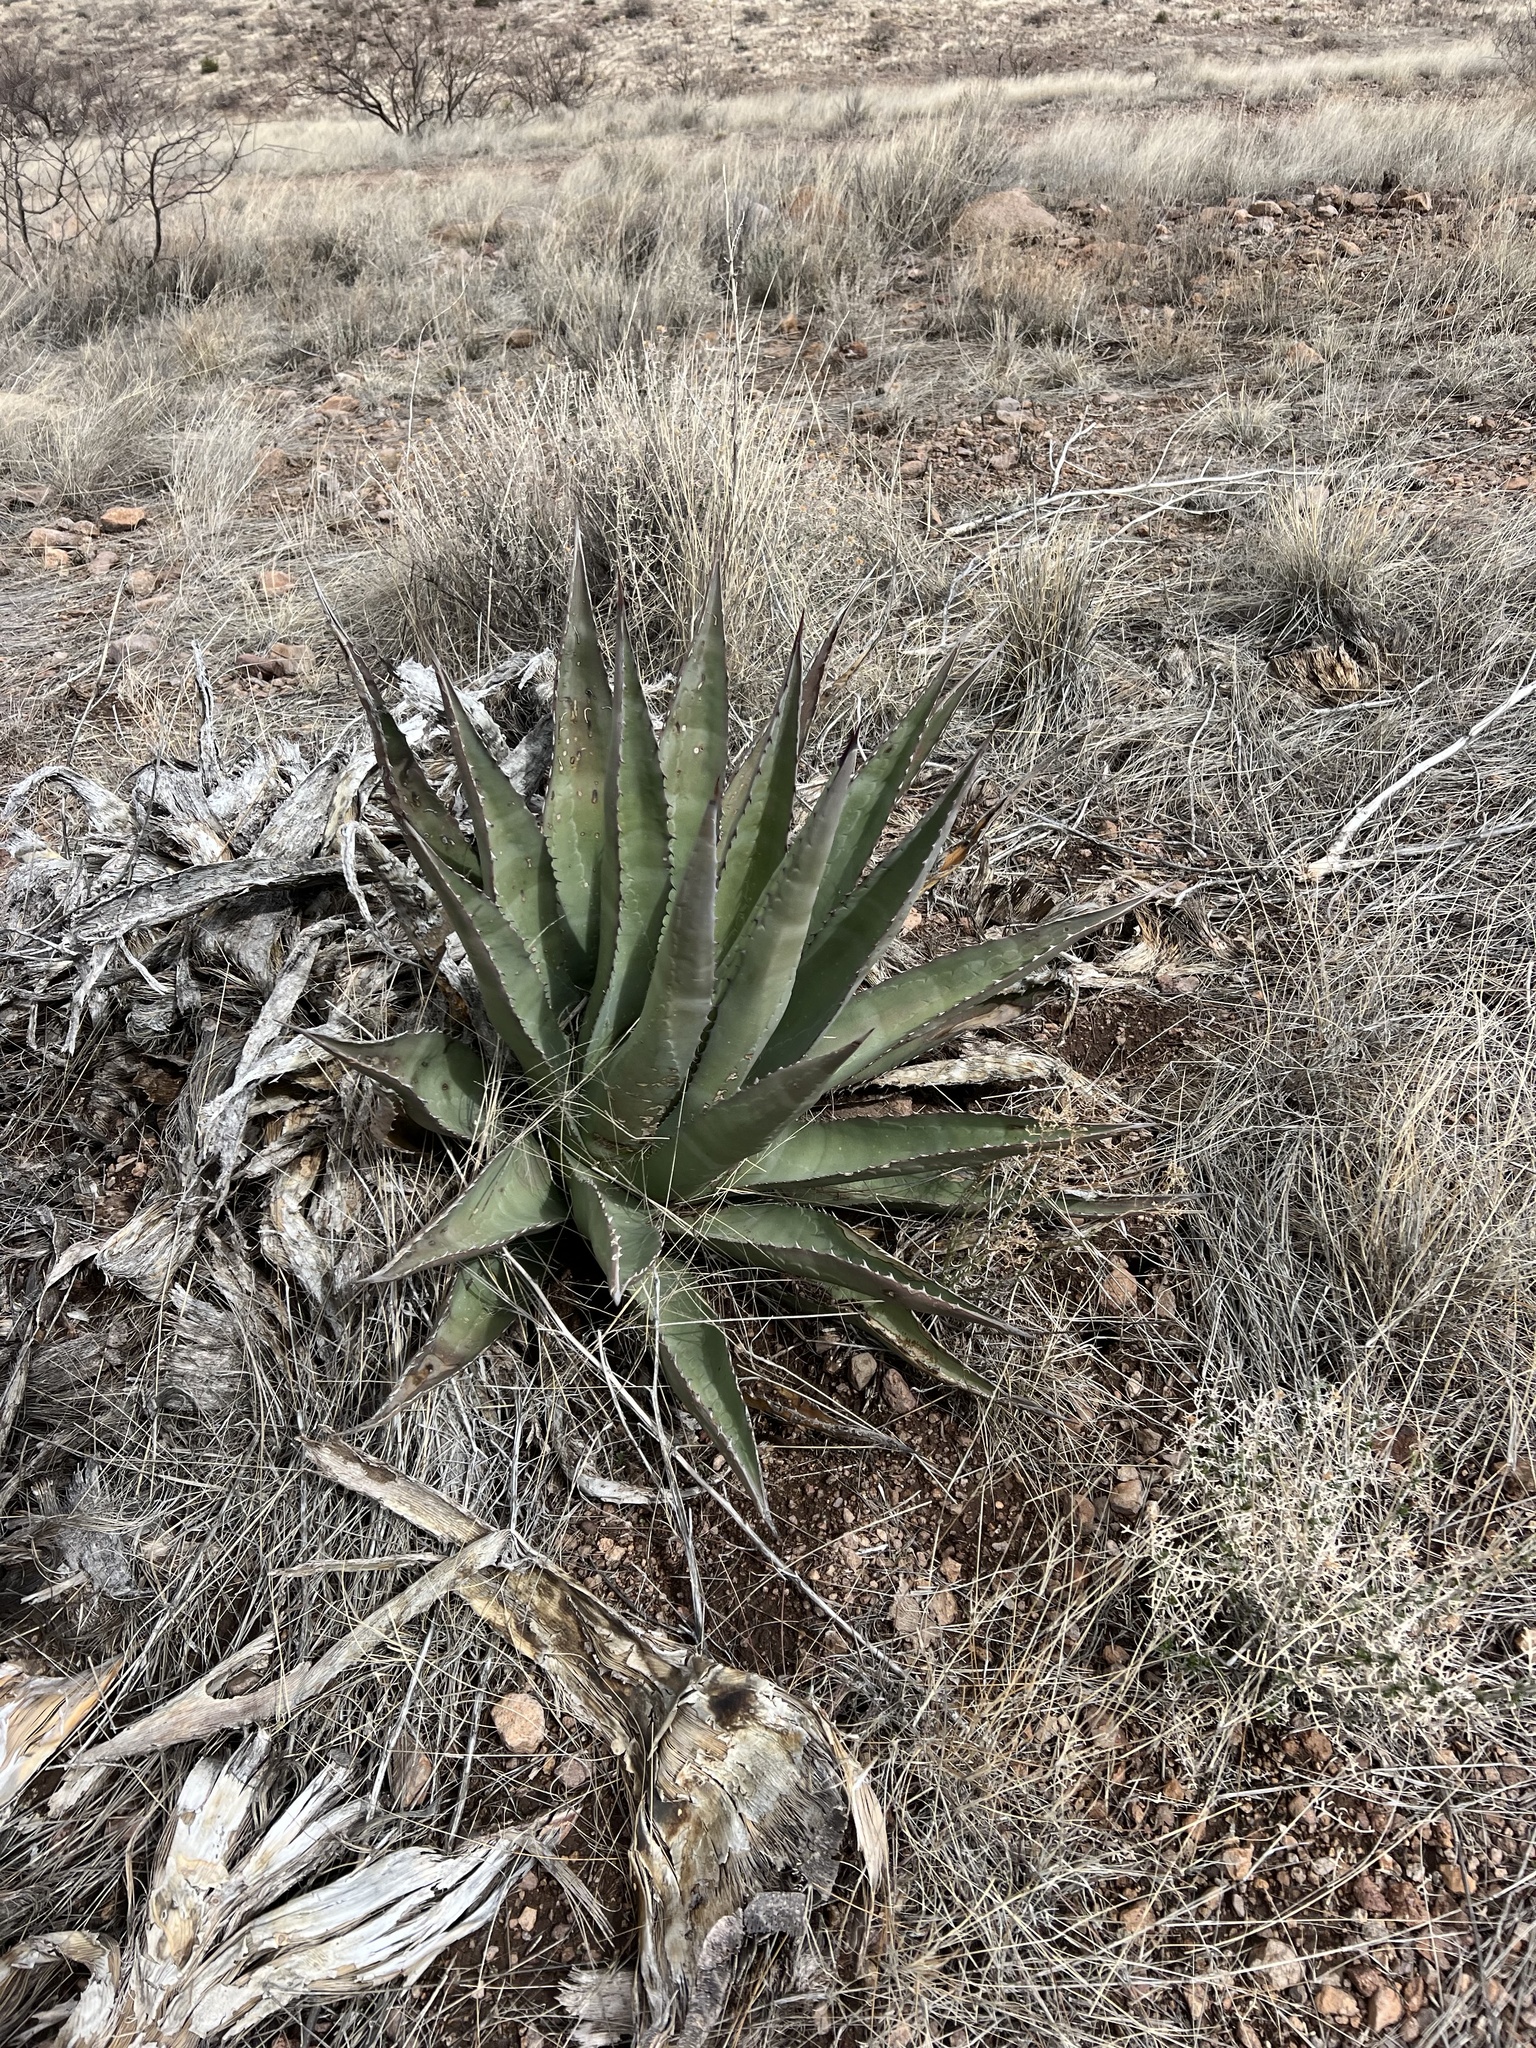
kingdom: Plantae
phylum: Tracheophyta
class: Liliopsida
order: Asparagales
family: Asparagaceae
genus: Agave
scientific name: Agave palmeri
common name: Palmer agave
